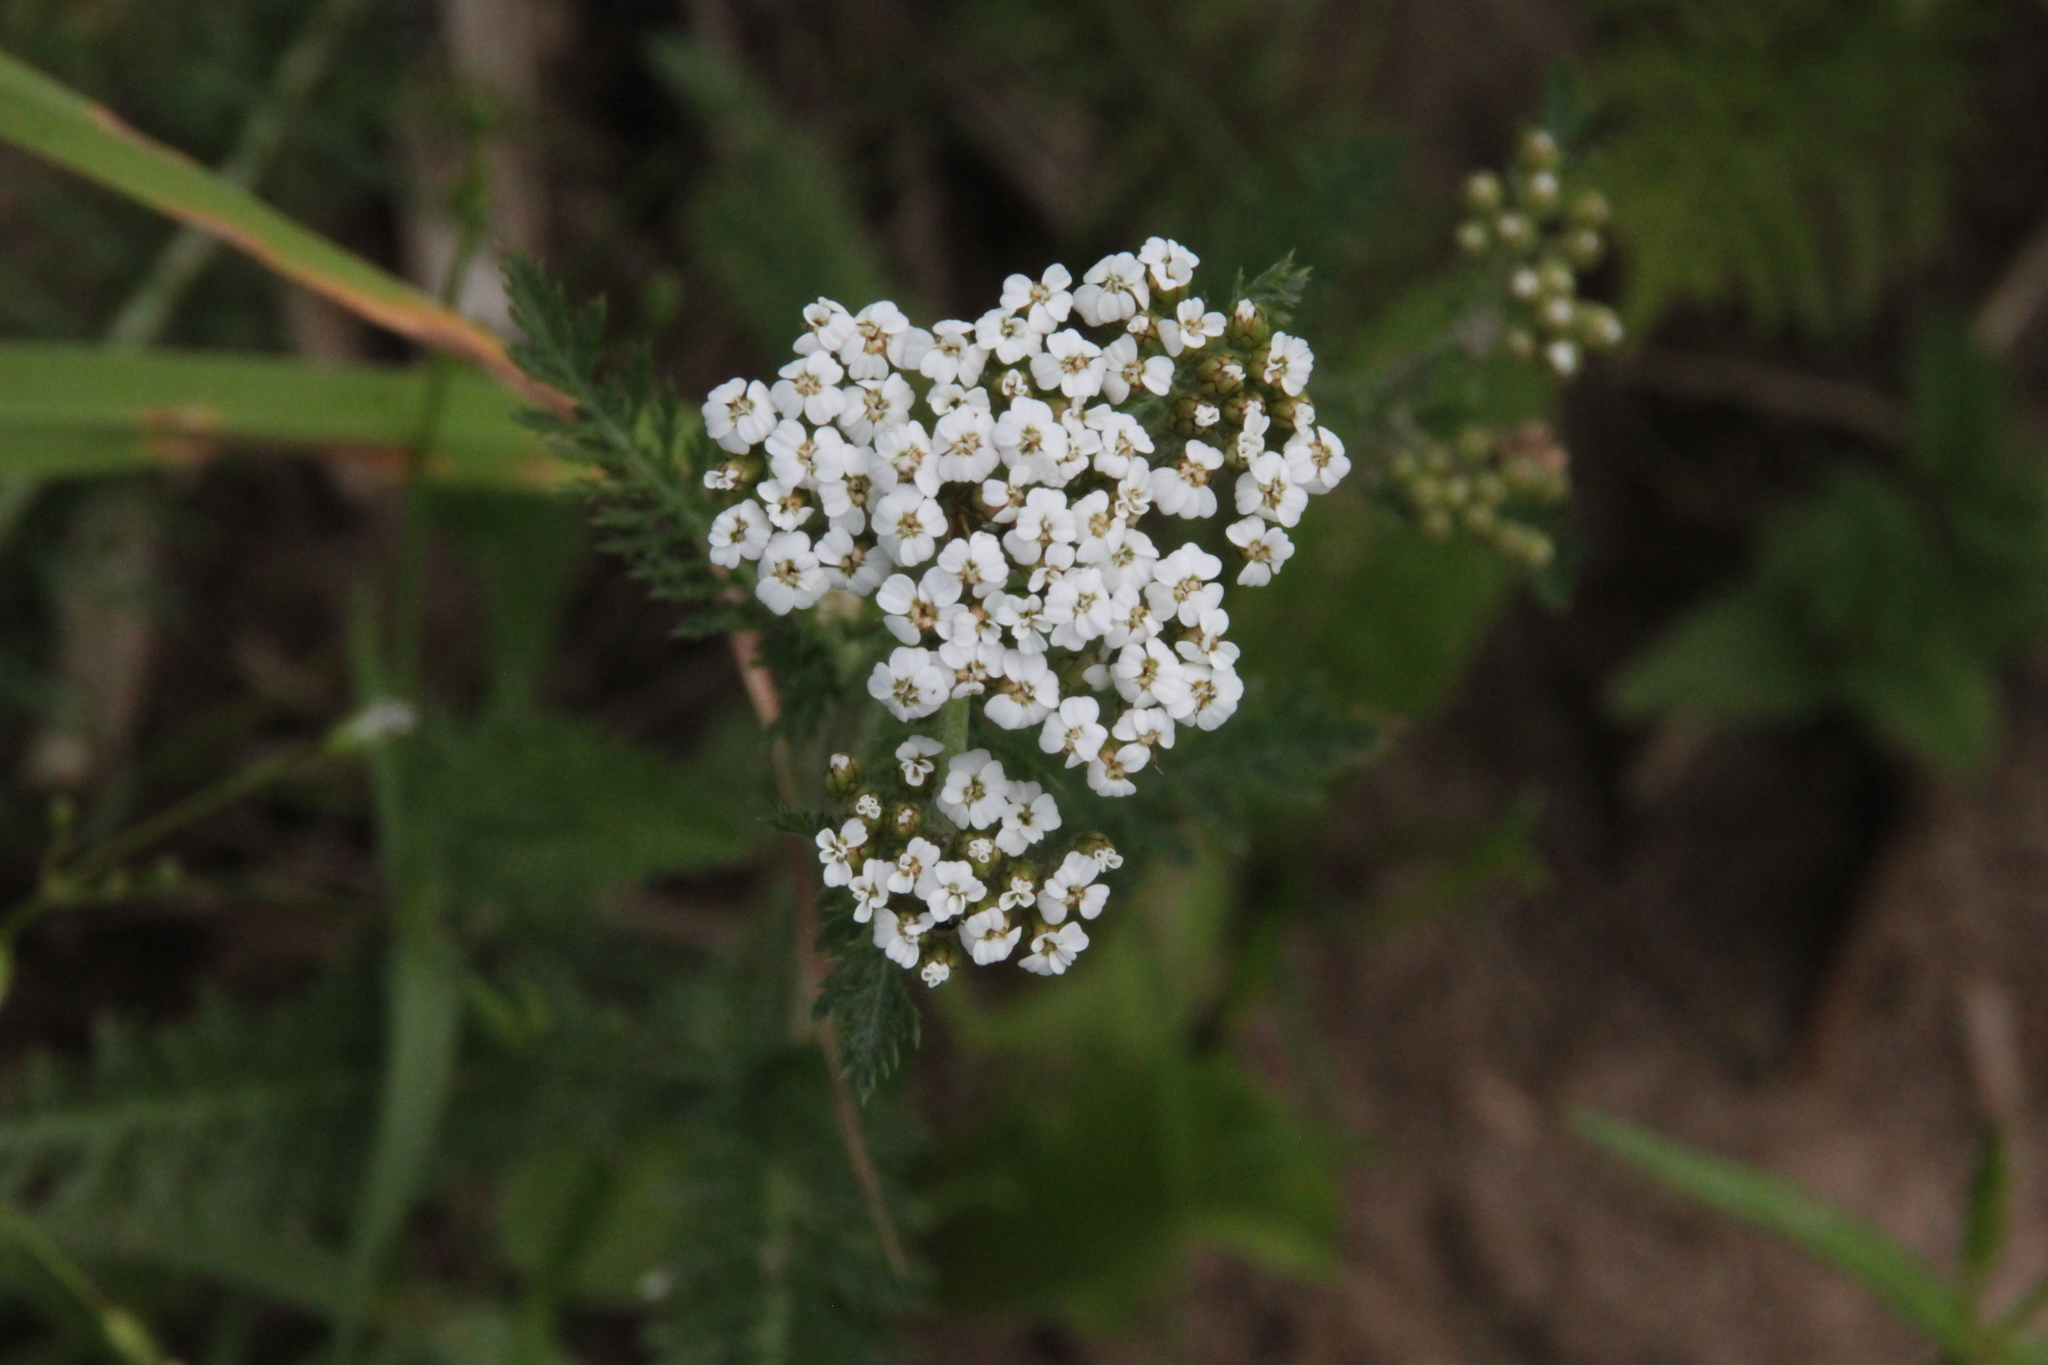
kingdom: Plantae
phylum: Tracheophyta
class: Magnoliopsida
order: Asterales
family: Asteraceae
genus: Achillea
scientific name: Achillea millefolium
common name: Yarrow
